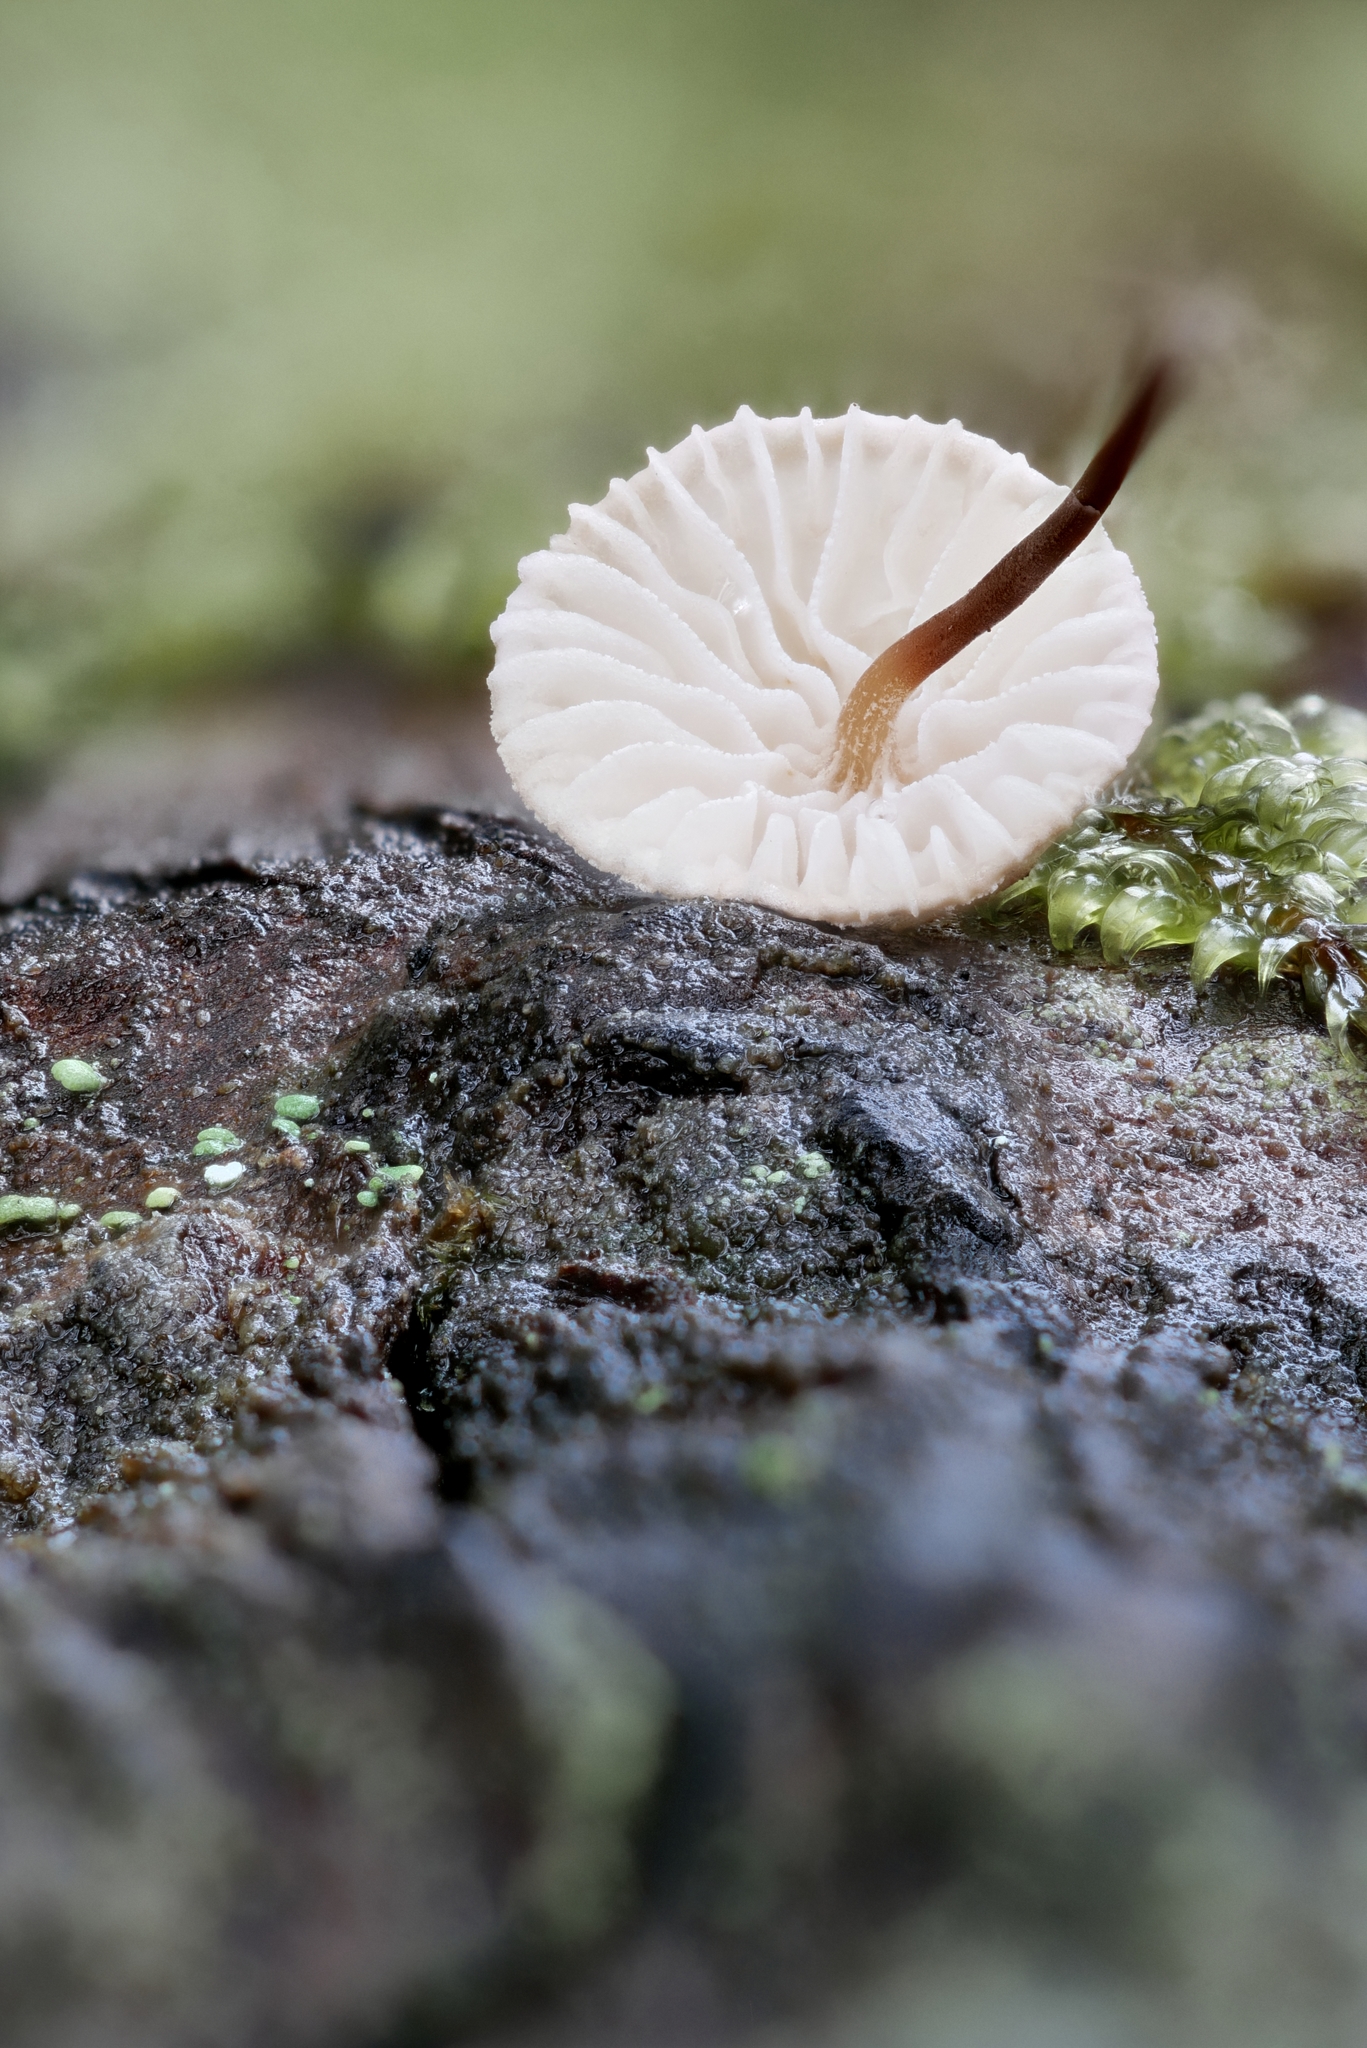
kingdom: Fungi
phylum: Basidiomycota
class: Agaricomycetes
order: Agaricales
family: Omphalotaceae
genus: Mycetinis
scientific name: Mycetinis scorodonius
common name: Vampires bane
